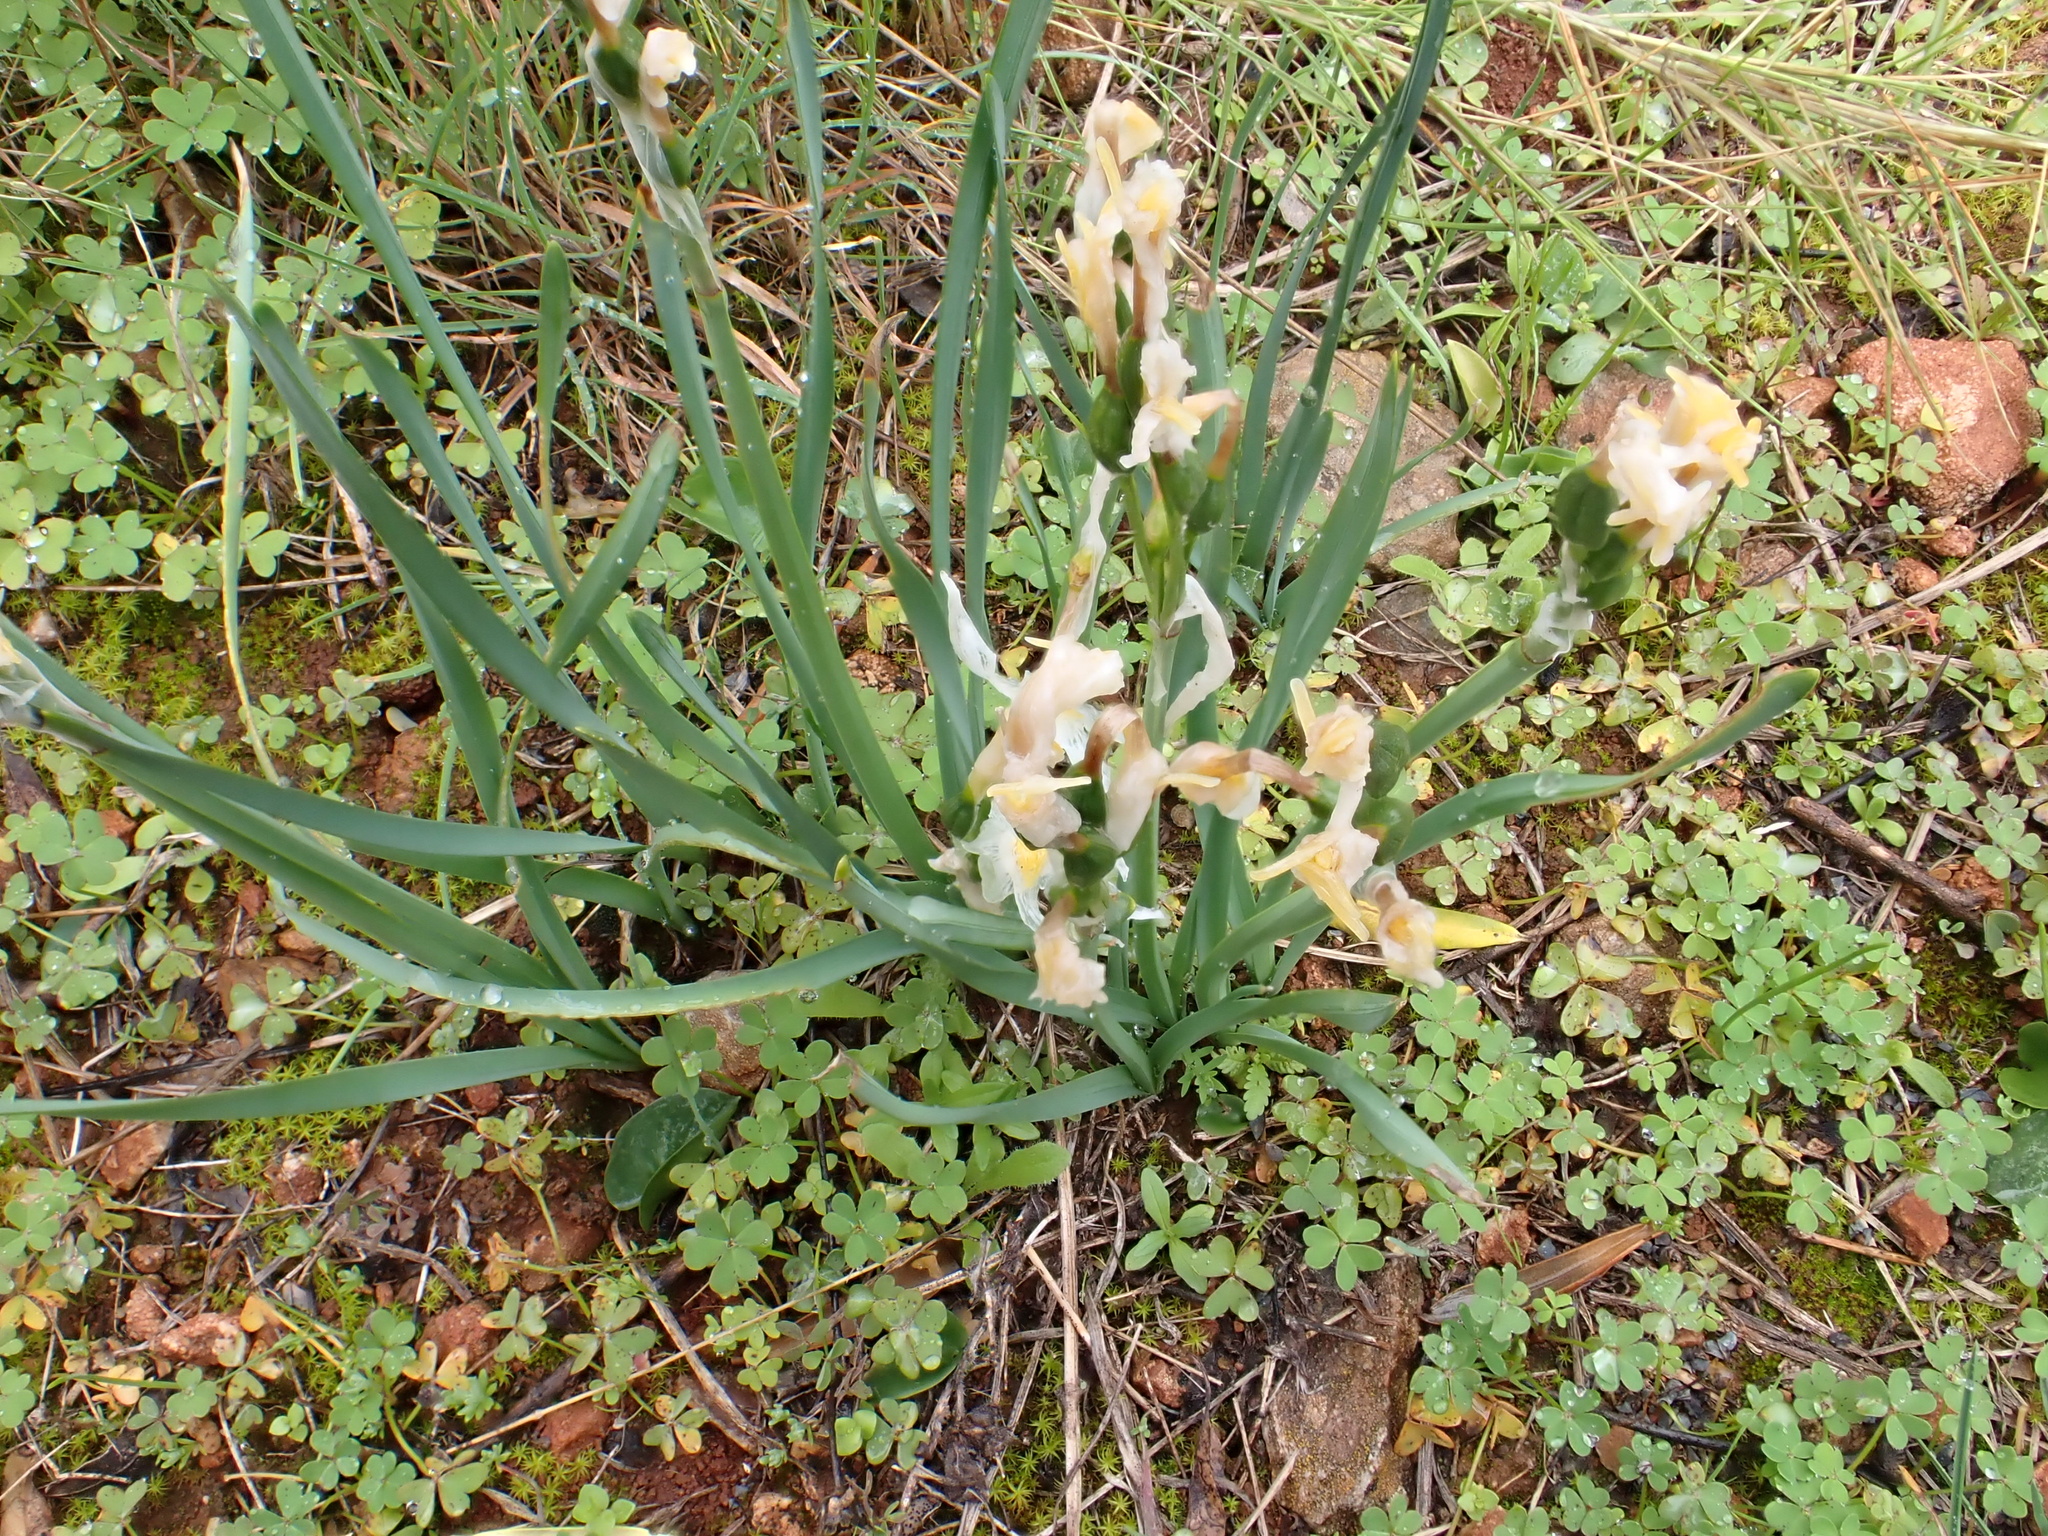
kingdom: Plantae
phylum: Tracheophyta
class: Liliopsida
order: Asparagales
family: Amaryllidaceae
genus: Narcissus
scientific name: Narcissus papyraceus
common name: Paper-white daffodil
